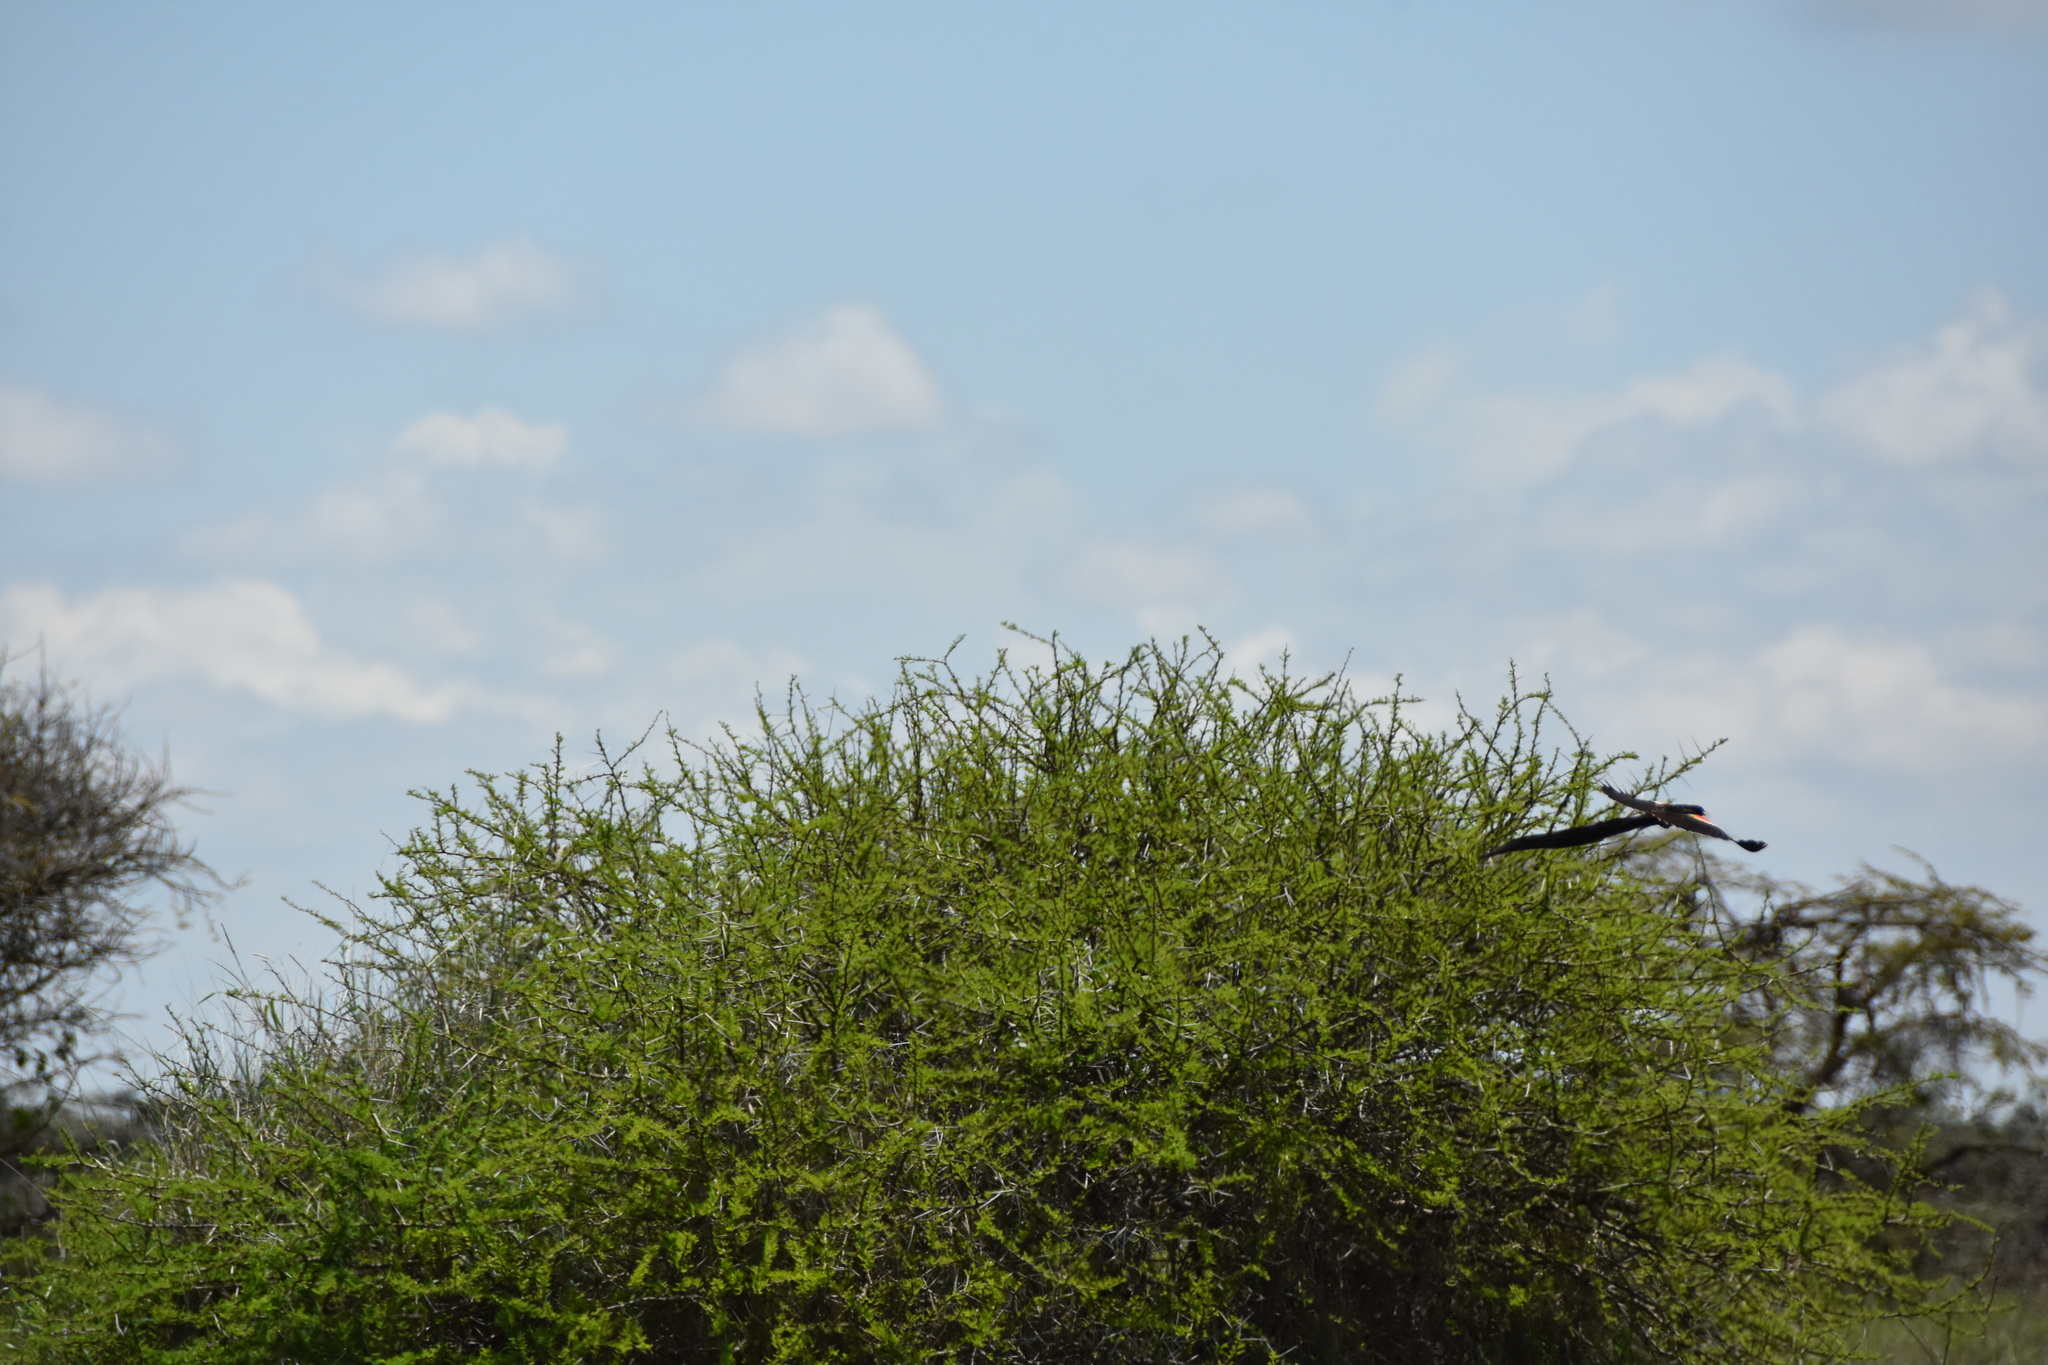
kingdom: Animalia
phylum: Chordata
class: Aves
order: Passeriformes
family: Ploceidae
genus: Euplectes
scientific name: Euplectes progne
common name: Long-tailed widowbird
